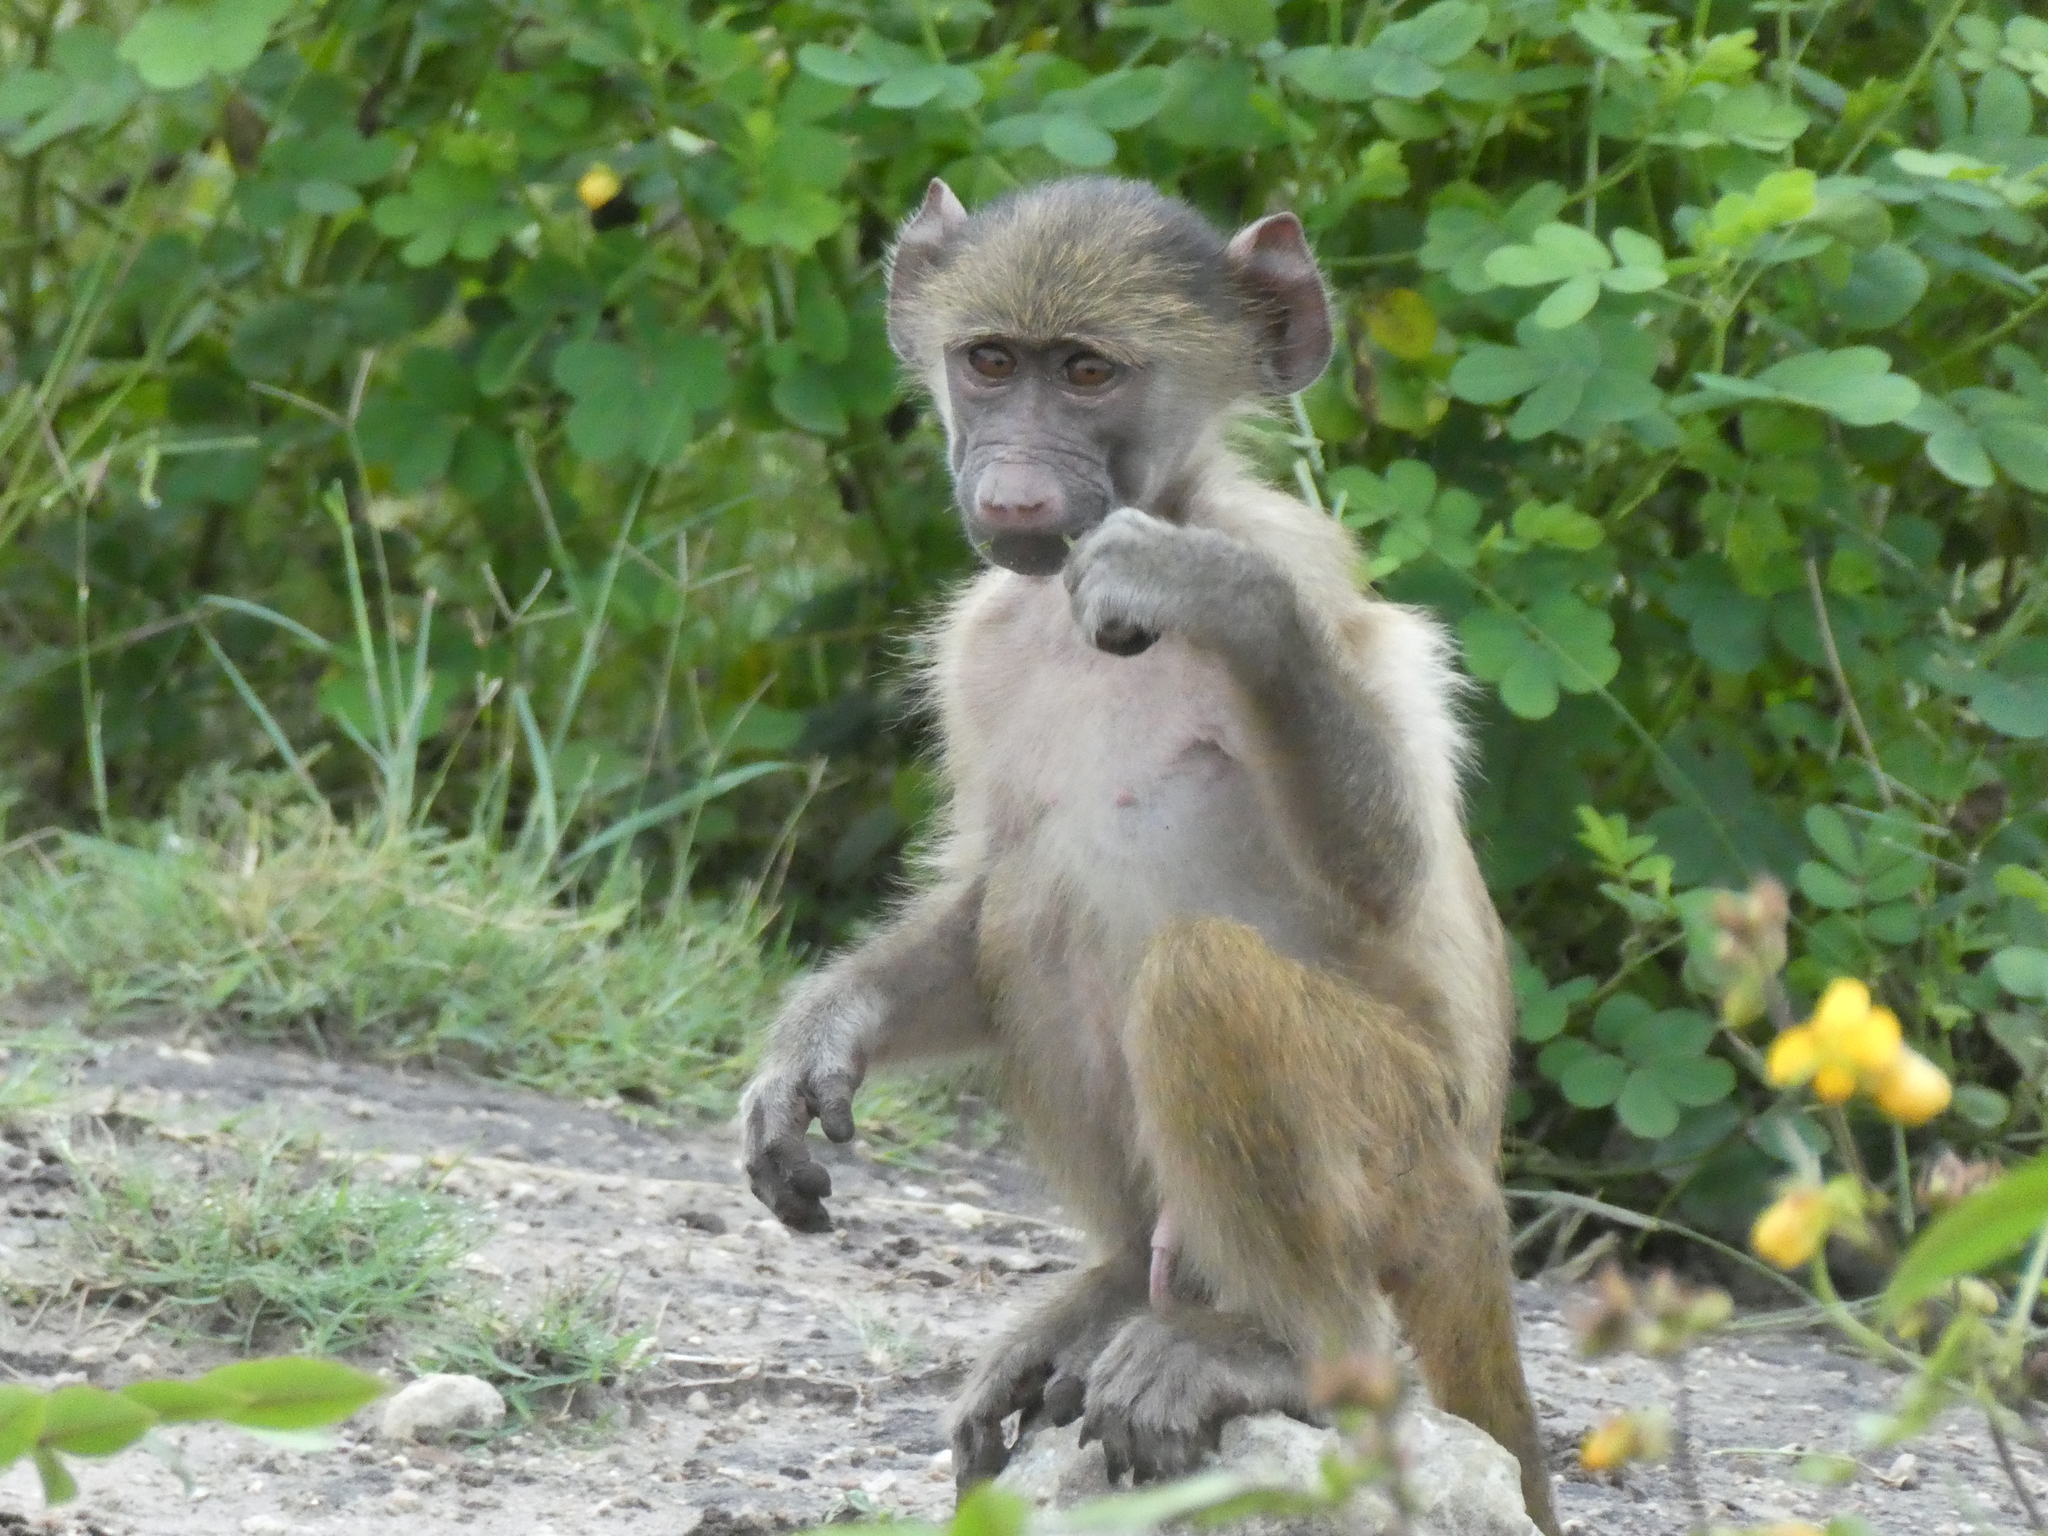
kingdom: Animalia
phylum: Chordata
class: Mammalia
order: Primates
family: Cercopithecidae
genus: Papio
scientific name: Papio ursinus
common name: Chacma baboon
